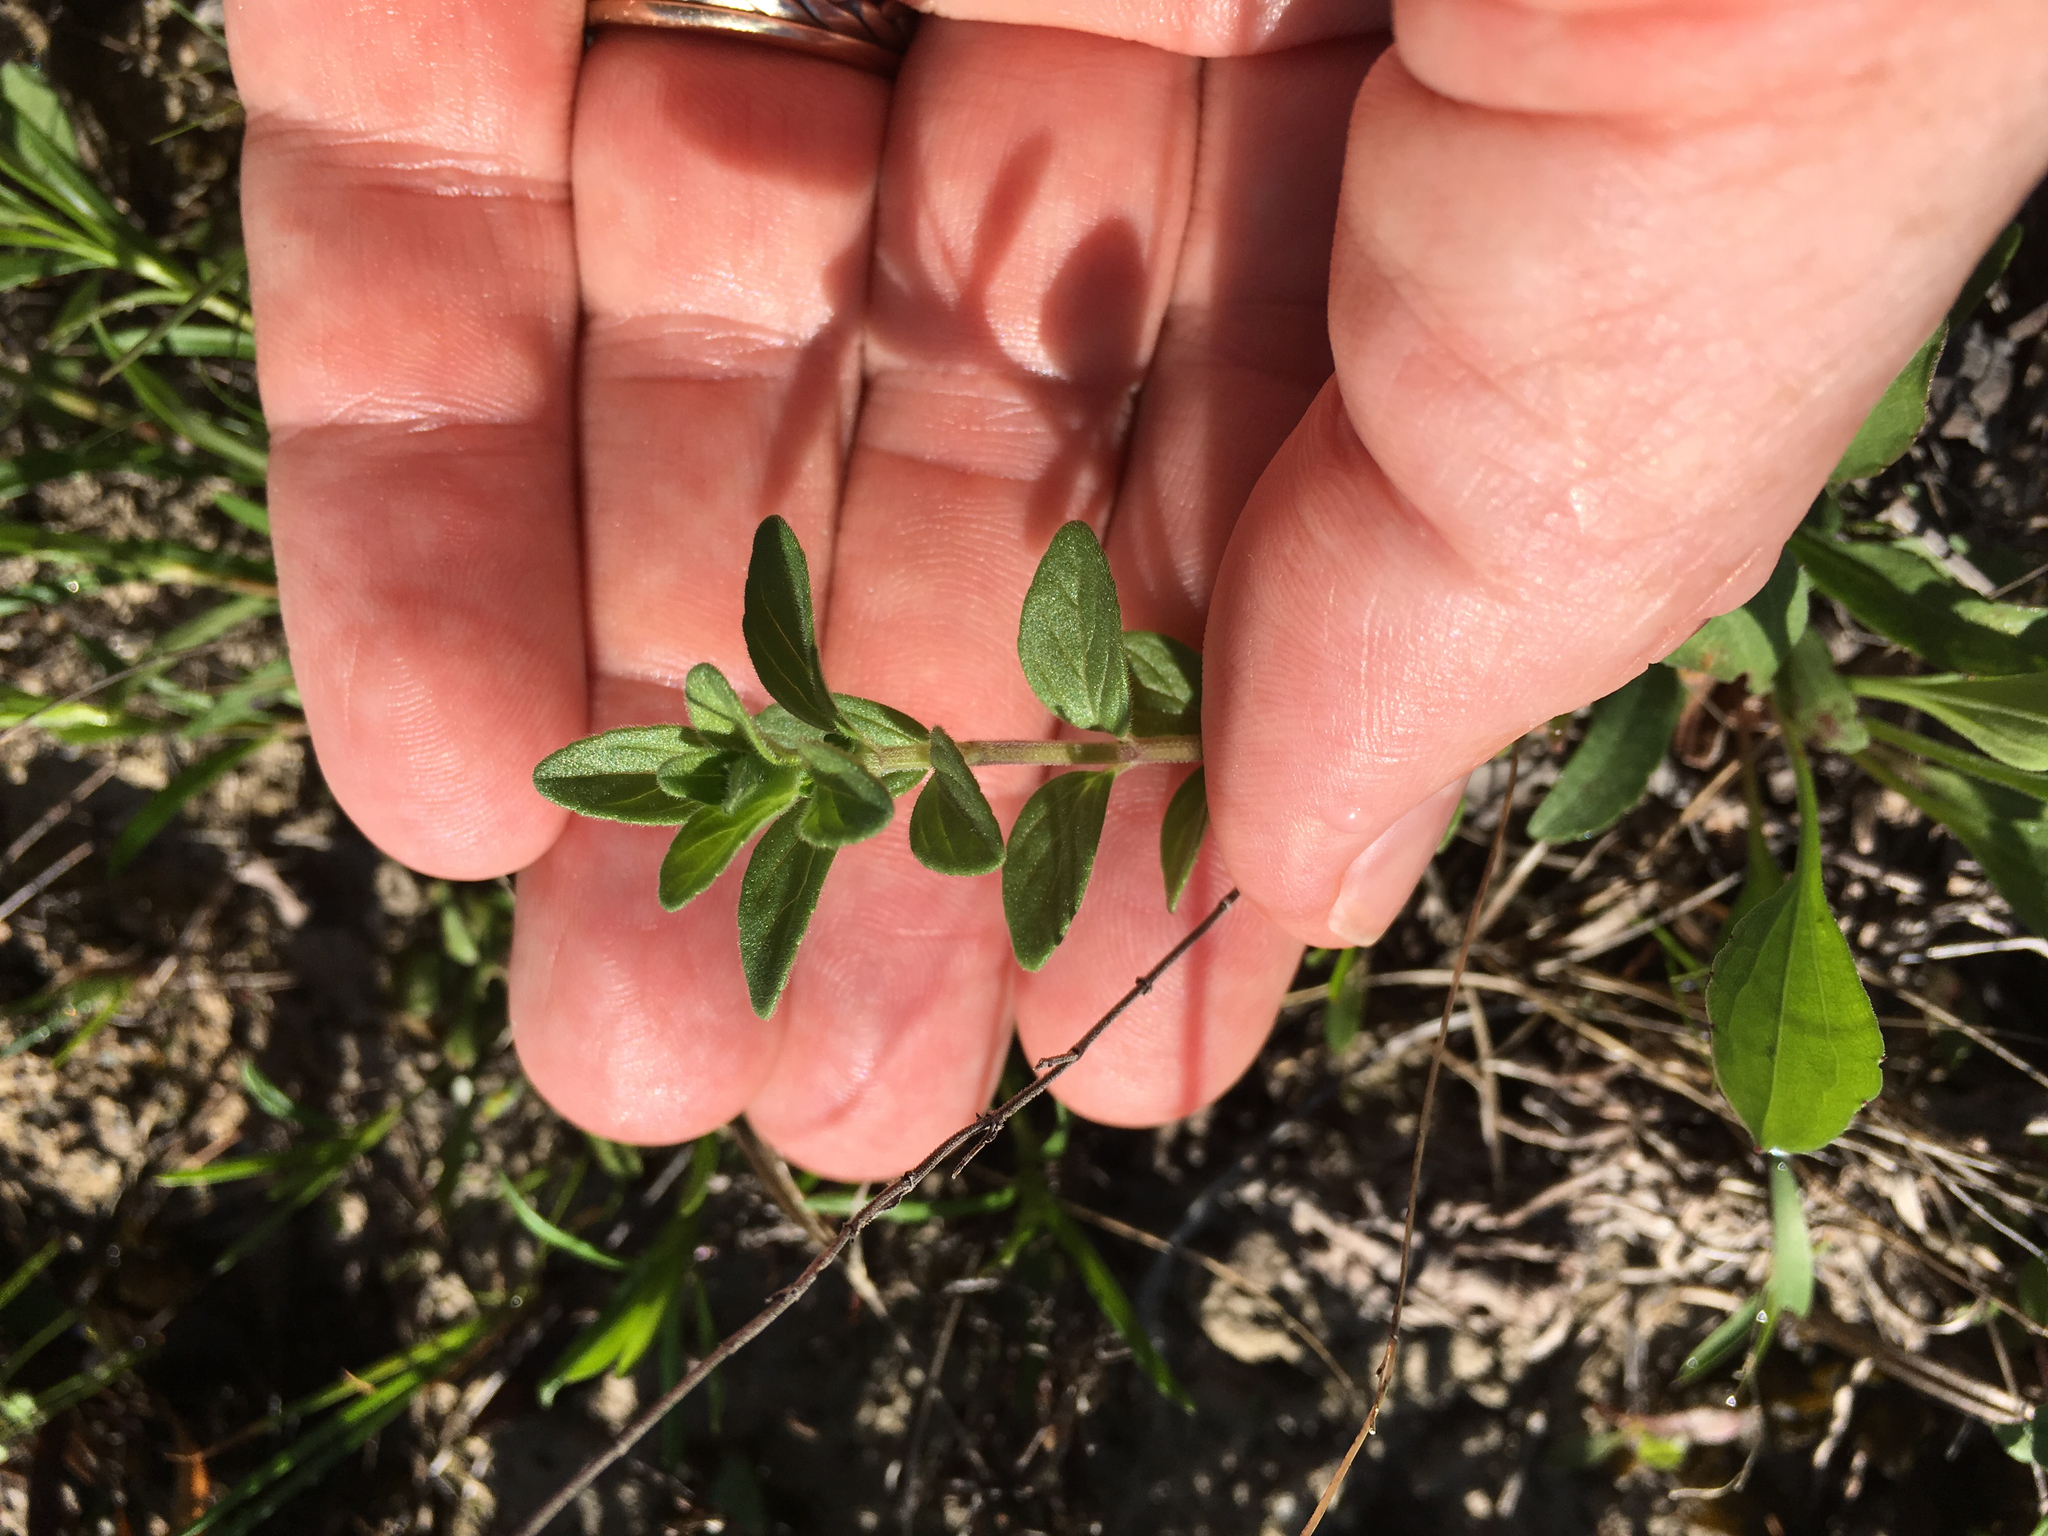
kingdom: Plantae
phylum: Tracheophyta
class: Magnoliopsida
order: Lamiales
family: Lamiaceae
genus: Hedeoma
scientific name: Hedeoma drummondii
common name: New mexico pennyroyal
